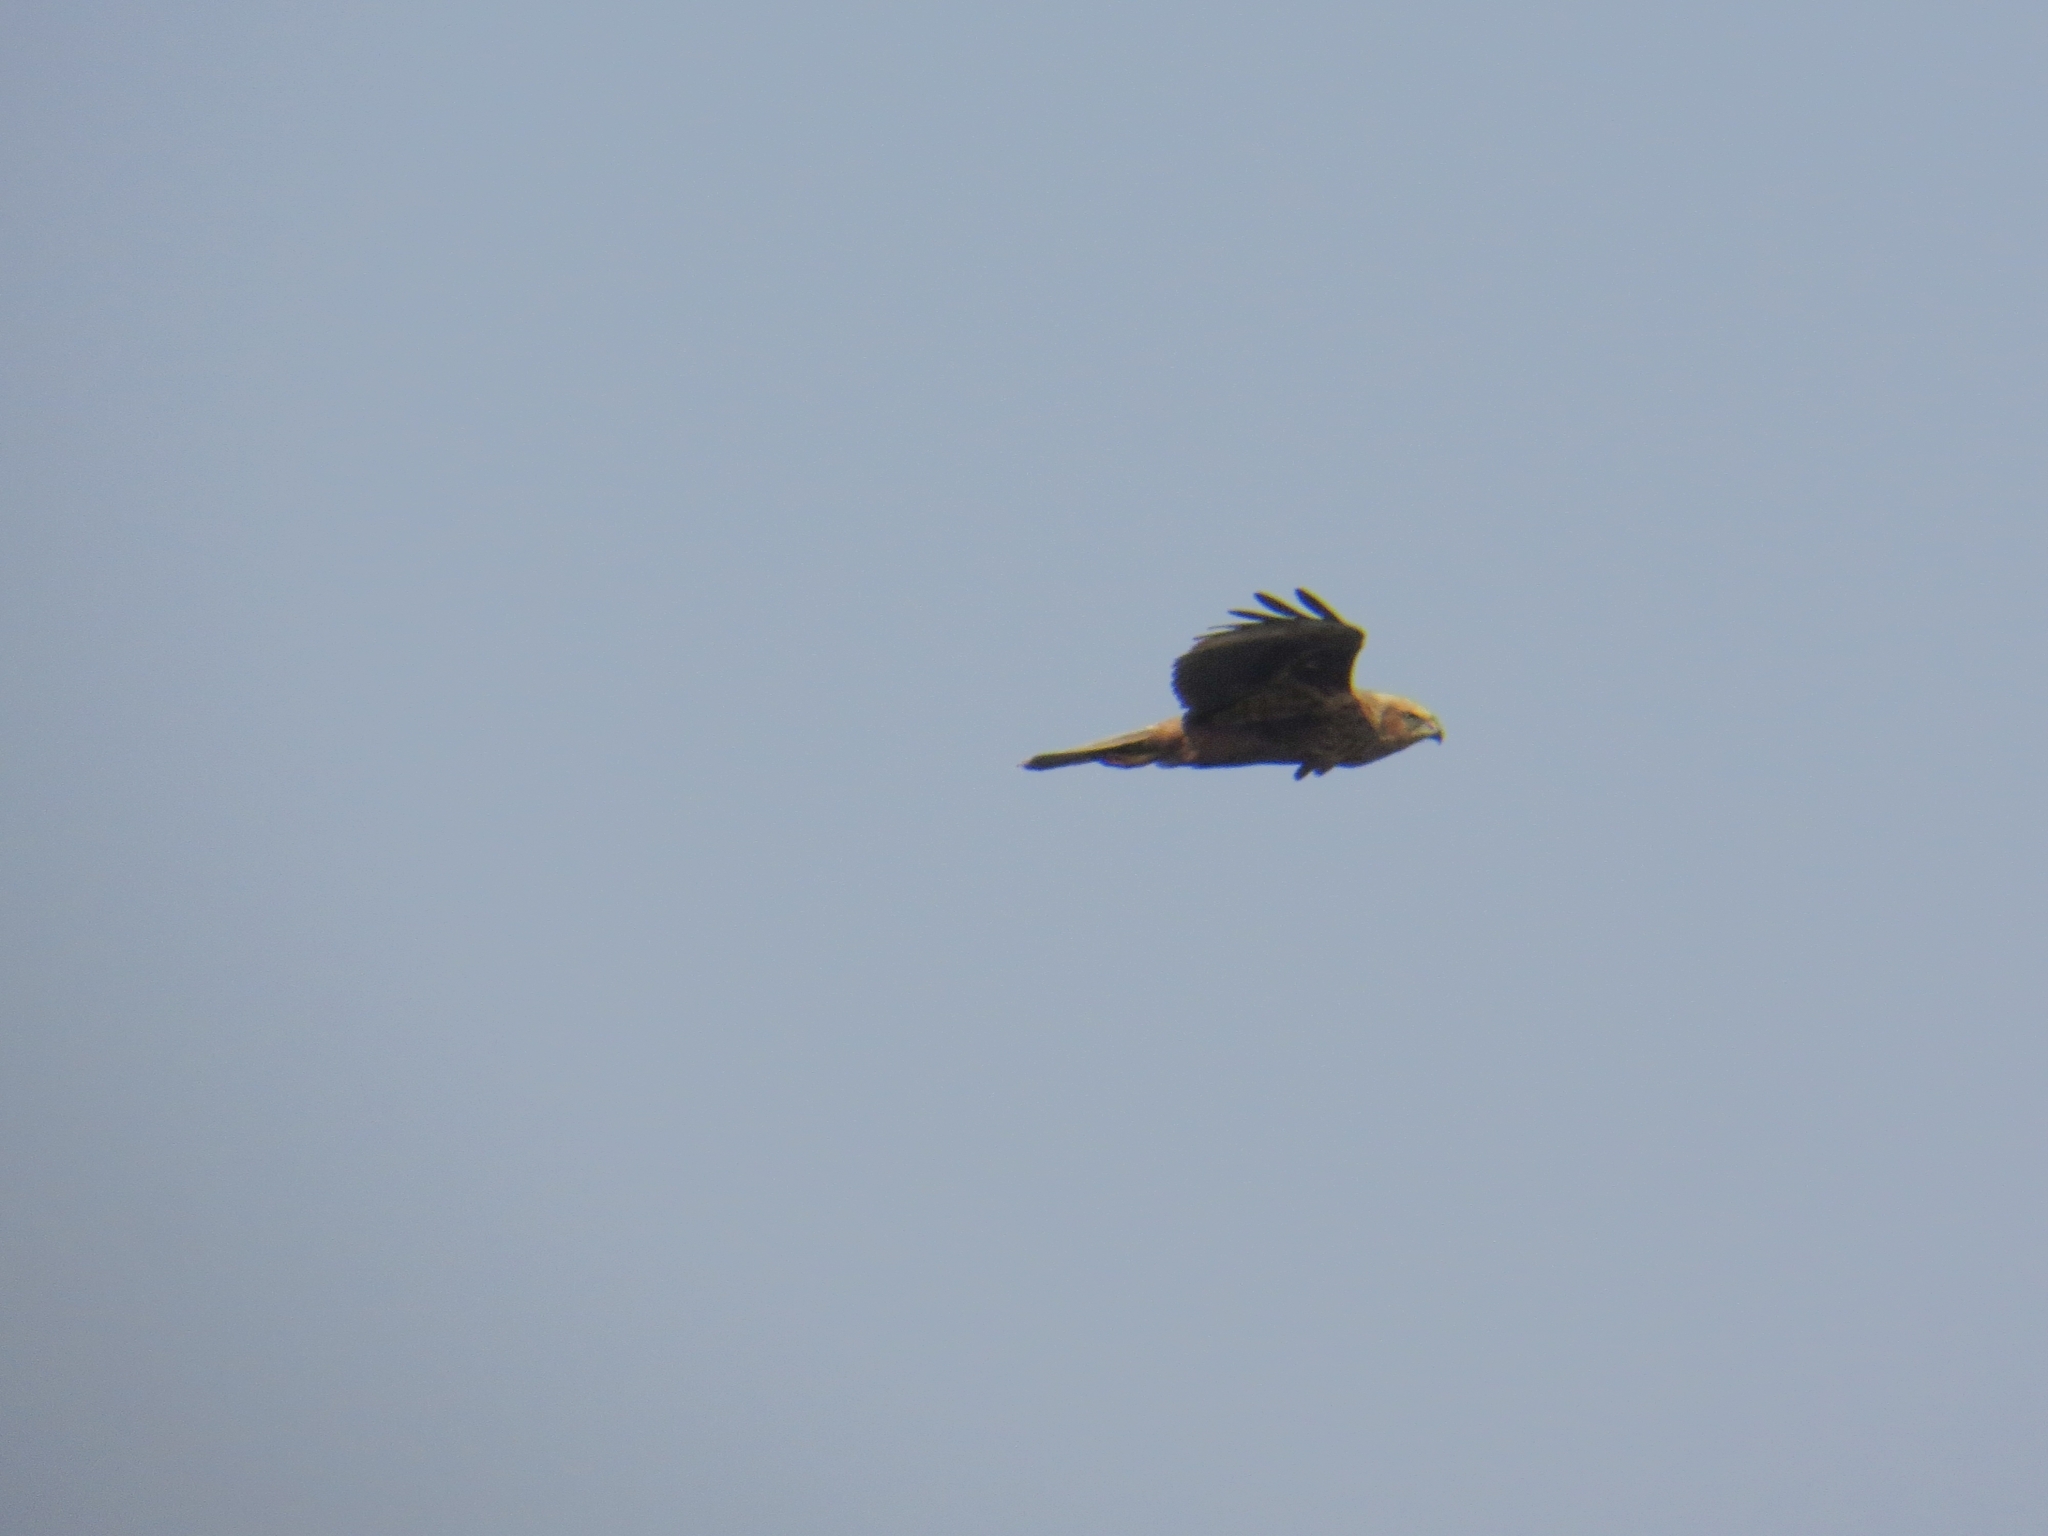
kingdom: Animalia
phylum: Chordata
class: Aves
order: Accipitriformes
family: Accipitridae
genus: Circus
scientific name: Circus aeruginosus
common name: Western marsh harrier
